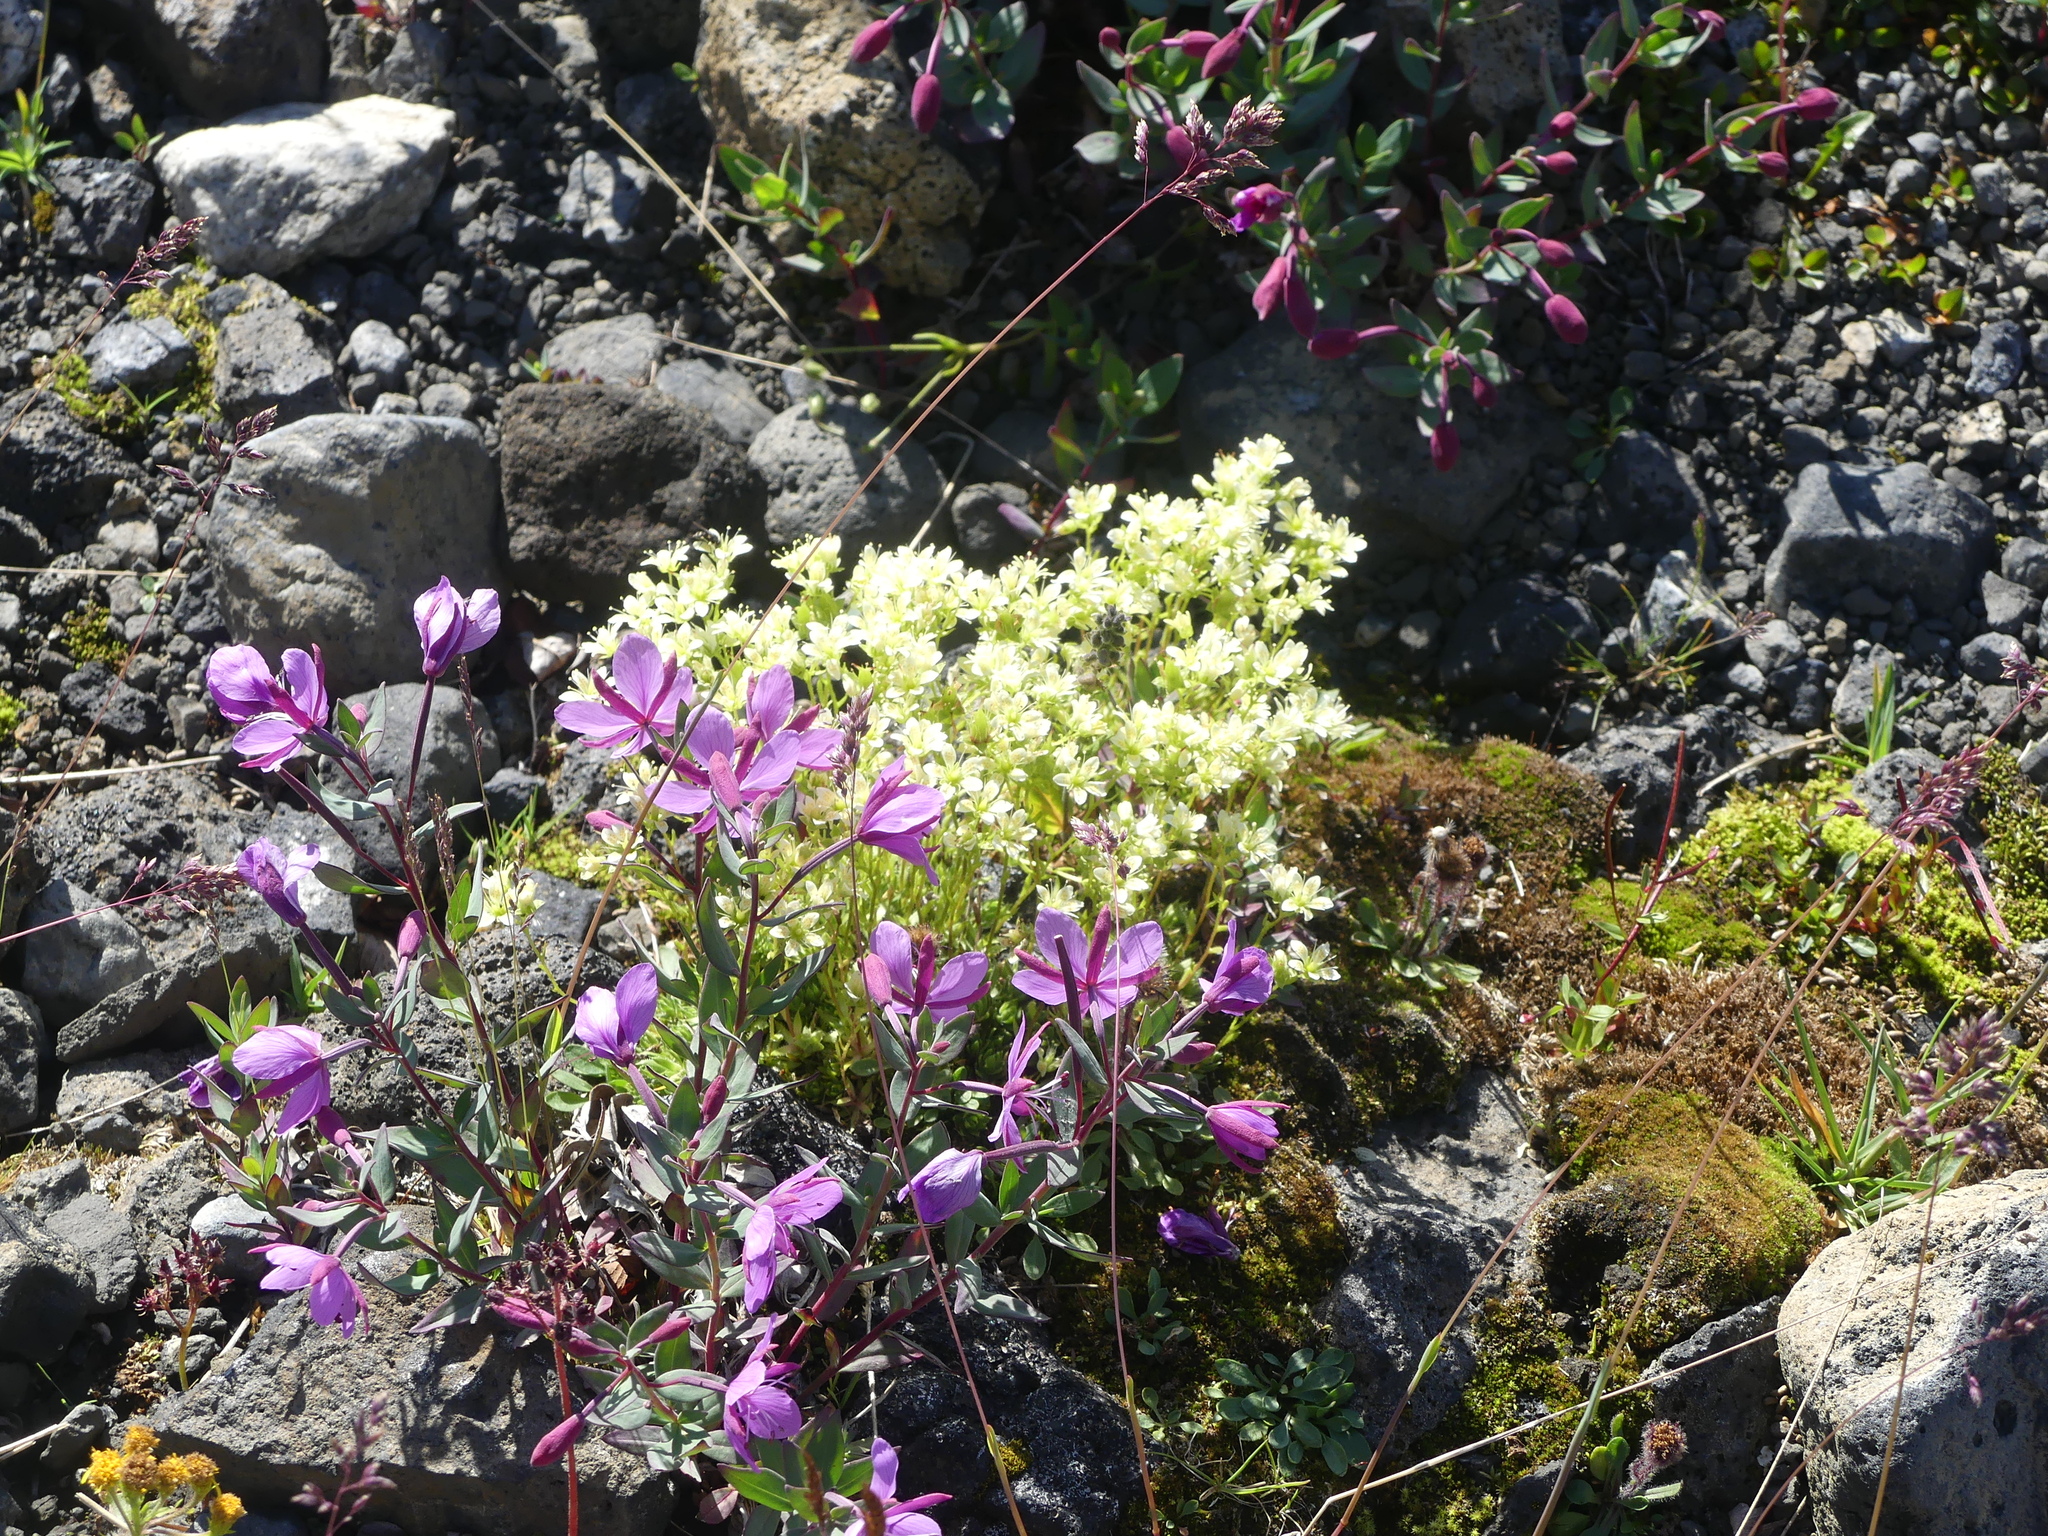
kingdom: Plantae
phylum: Tracheophyta
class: Magnoliopsida
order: Myrtales
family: Onagraceae
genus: Chamaenerion
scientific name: Chamaenerion latifolium
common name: Dwarf fireweed
